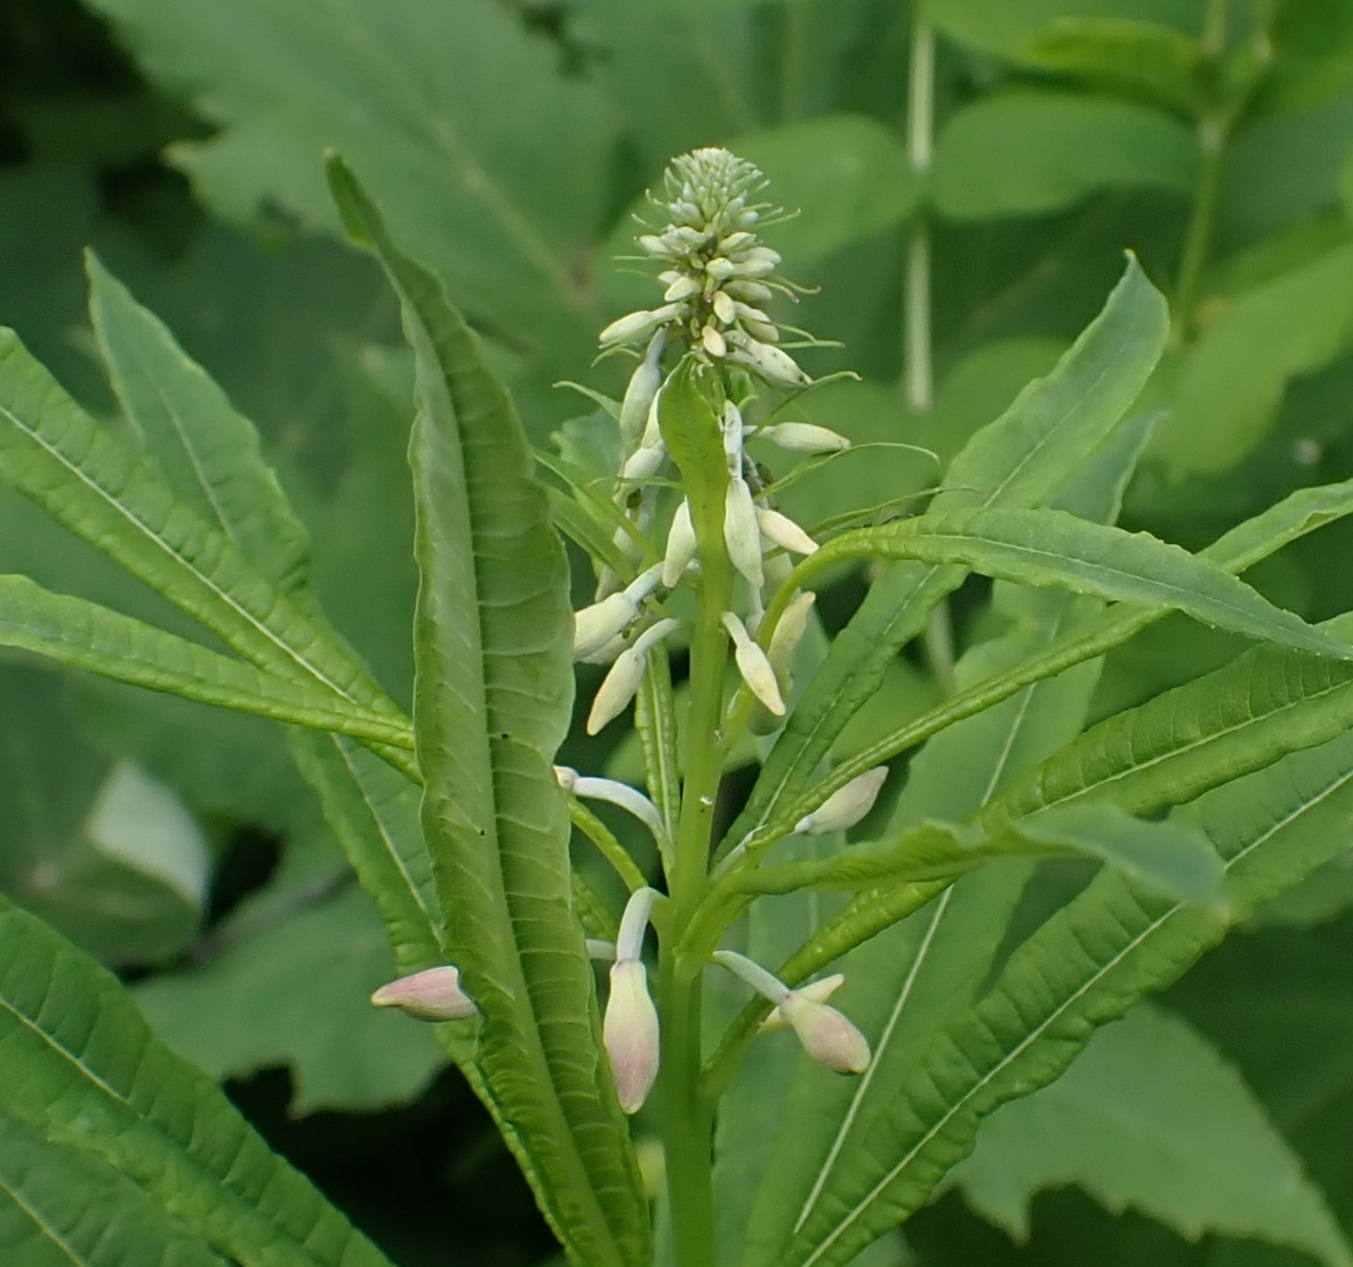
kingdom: Plantae
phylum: Tracheophyta
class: Magnoliopsida
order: Myrtales
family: Onagraceae
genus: Chamaenerion
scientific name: Chamaenerion angustifolium
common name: Fireweed
